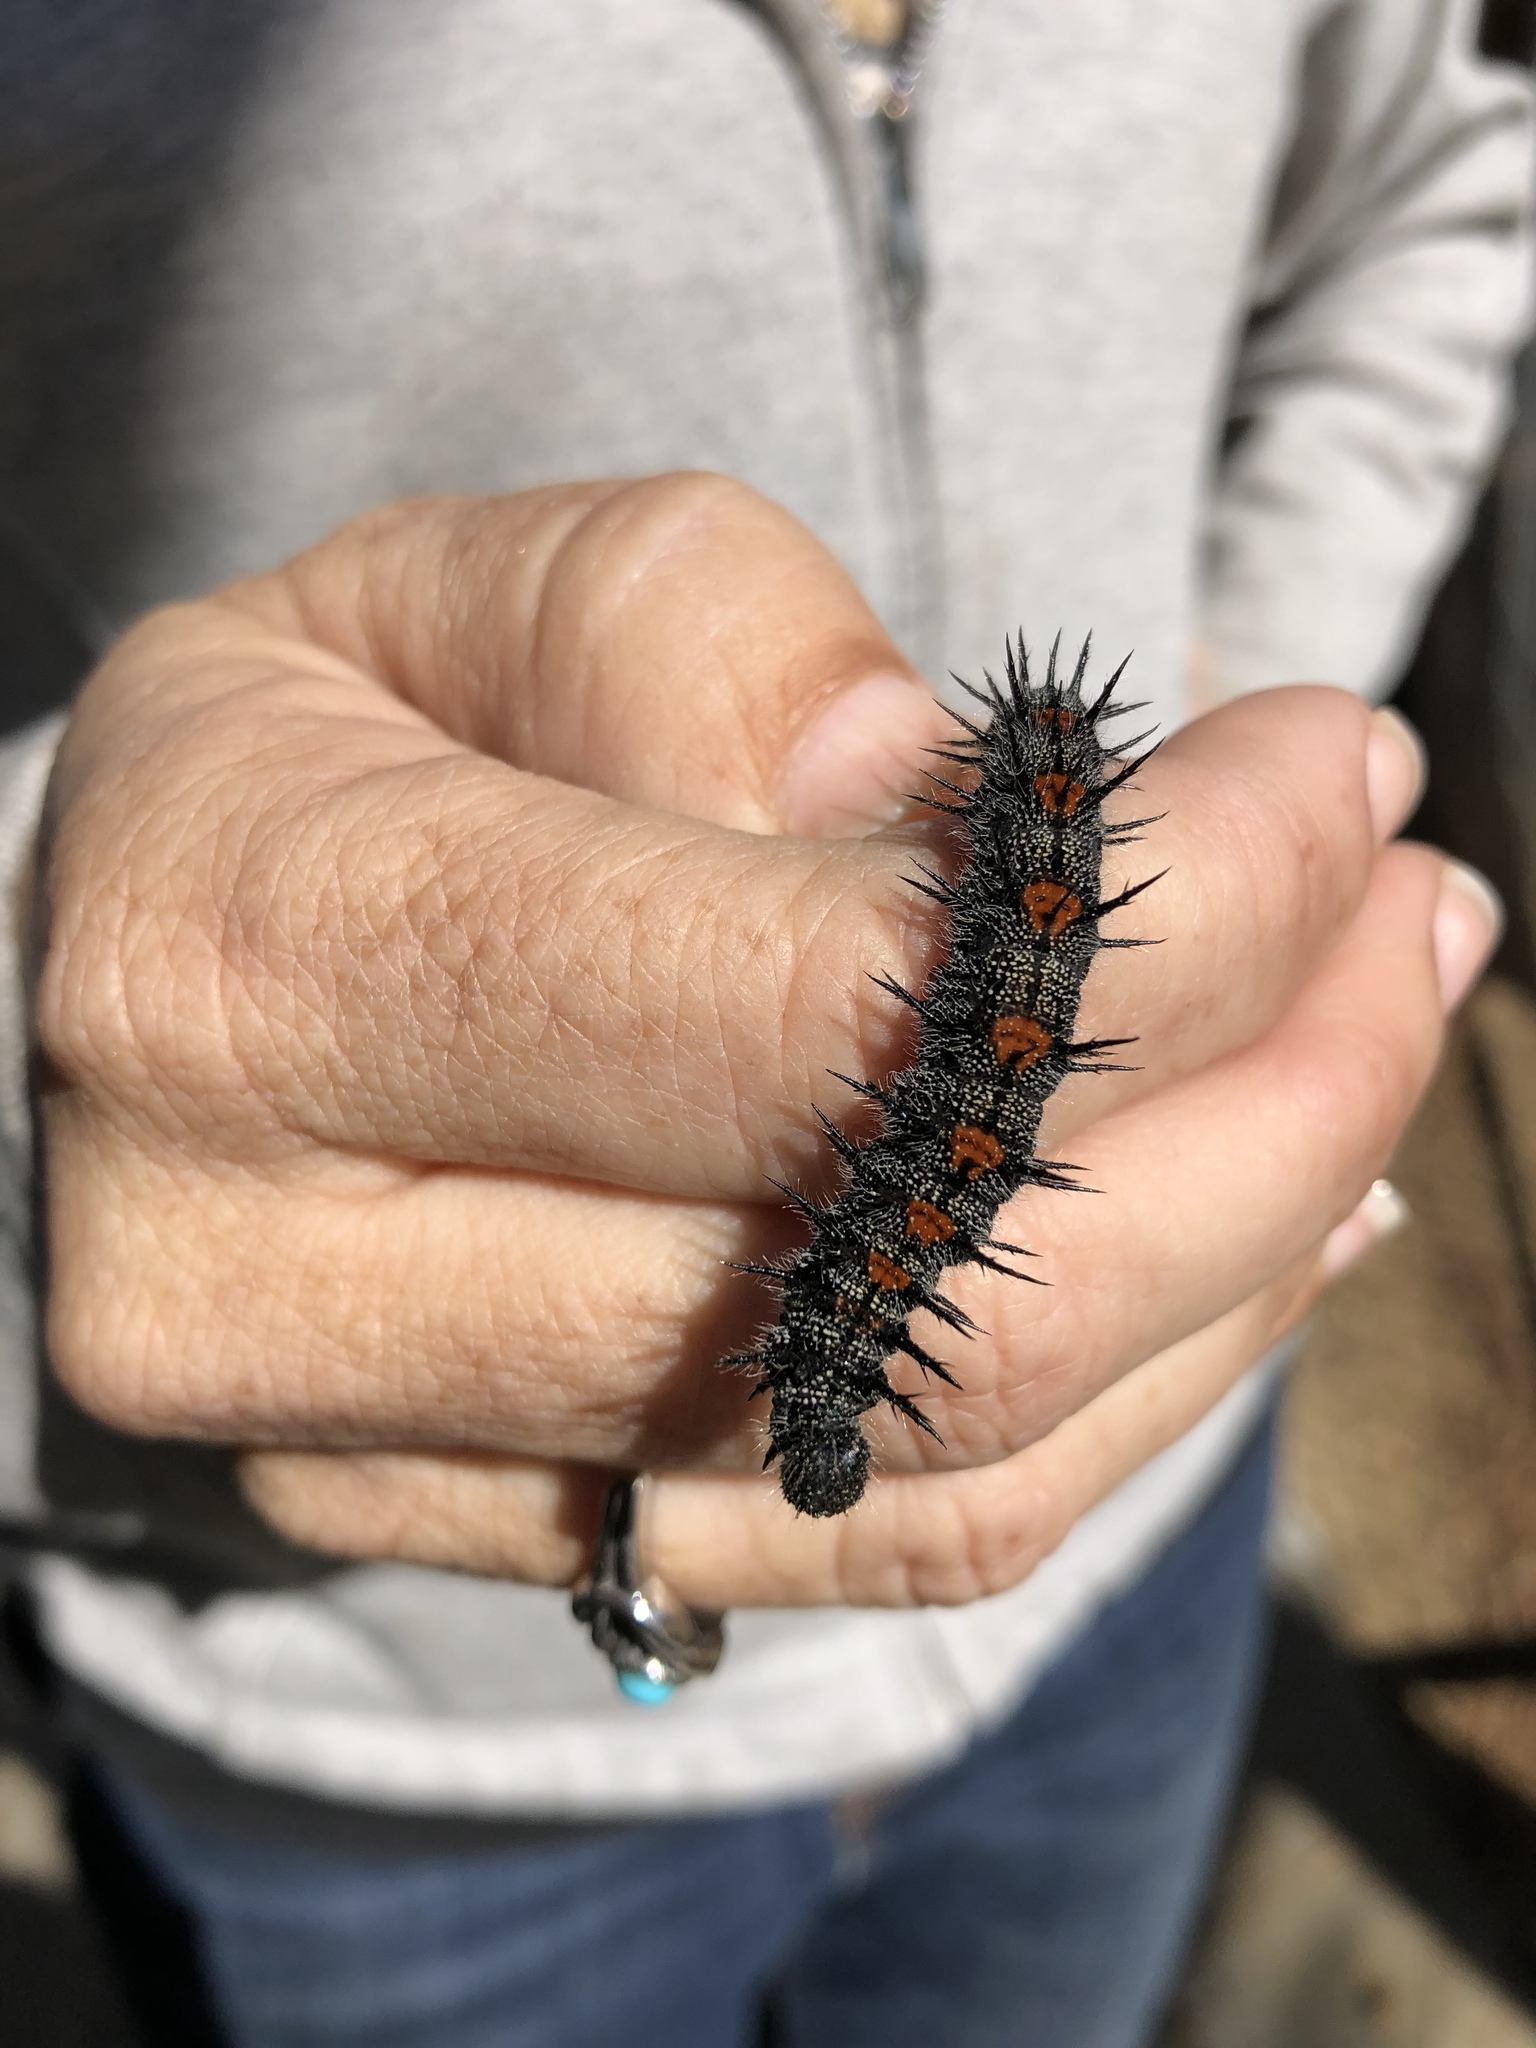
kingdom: Animalia
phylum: Arthropoda
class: Insecta
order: Lepidoptera
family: Nymphalidae
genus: Nymphalis
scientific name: Nymphalis antiopa
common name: Camberwell beauty
